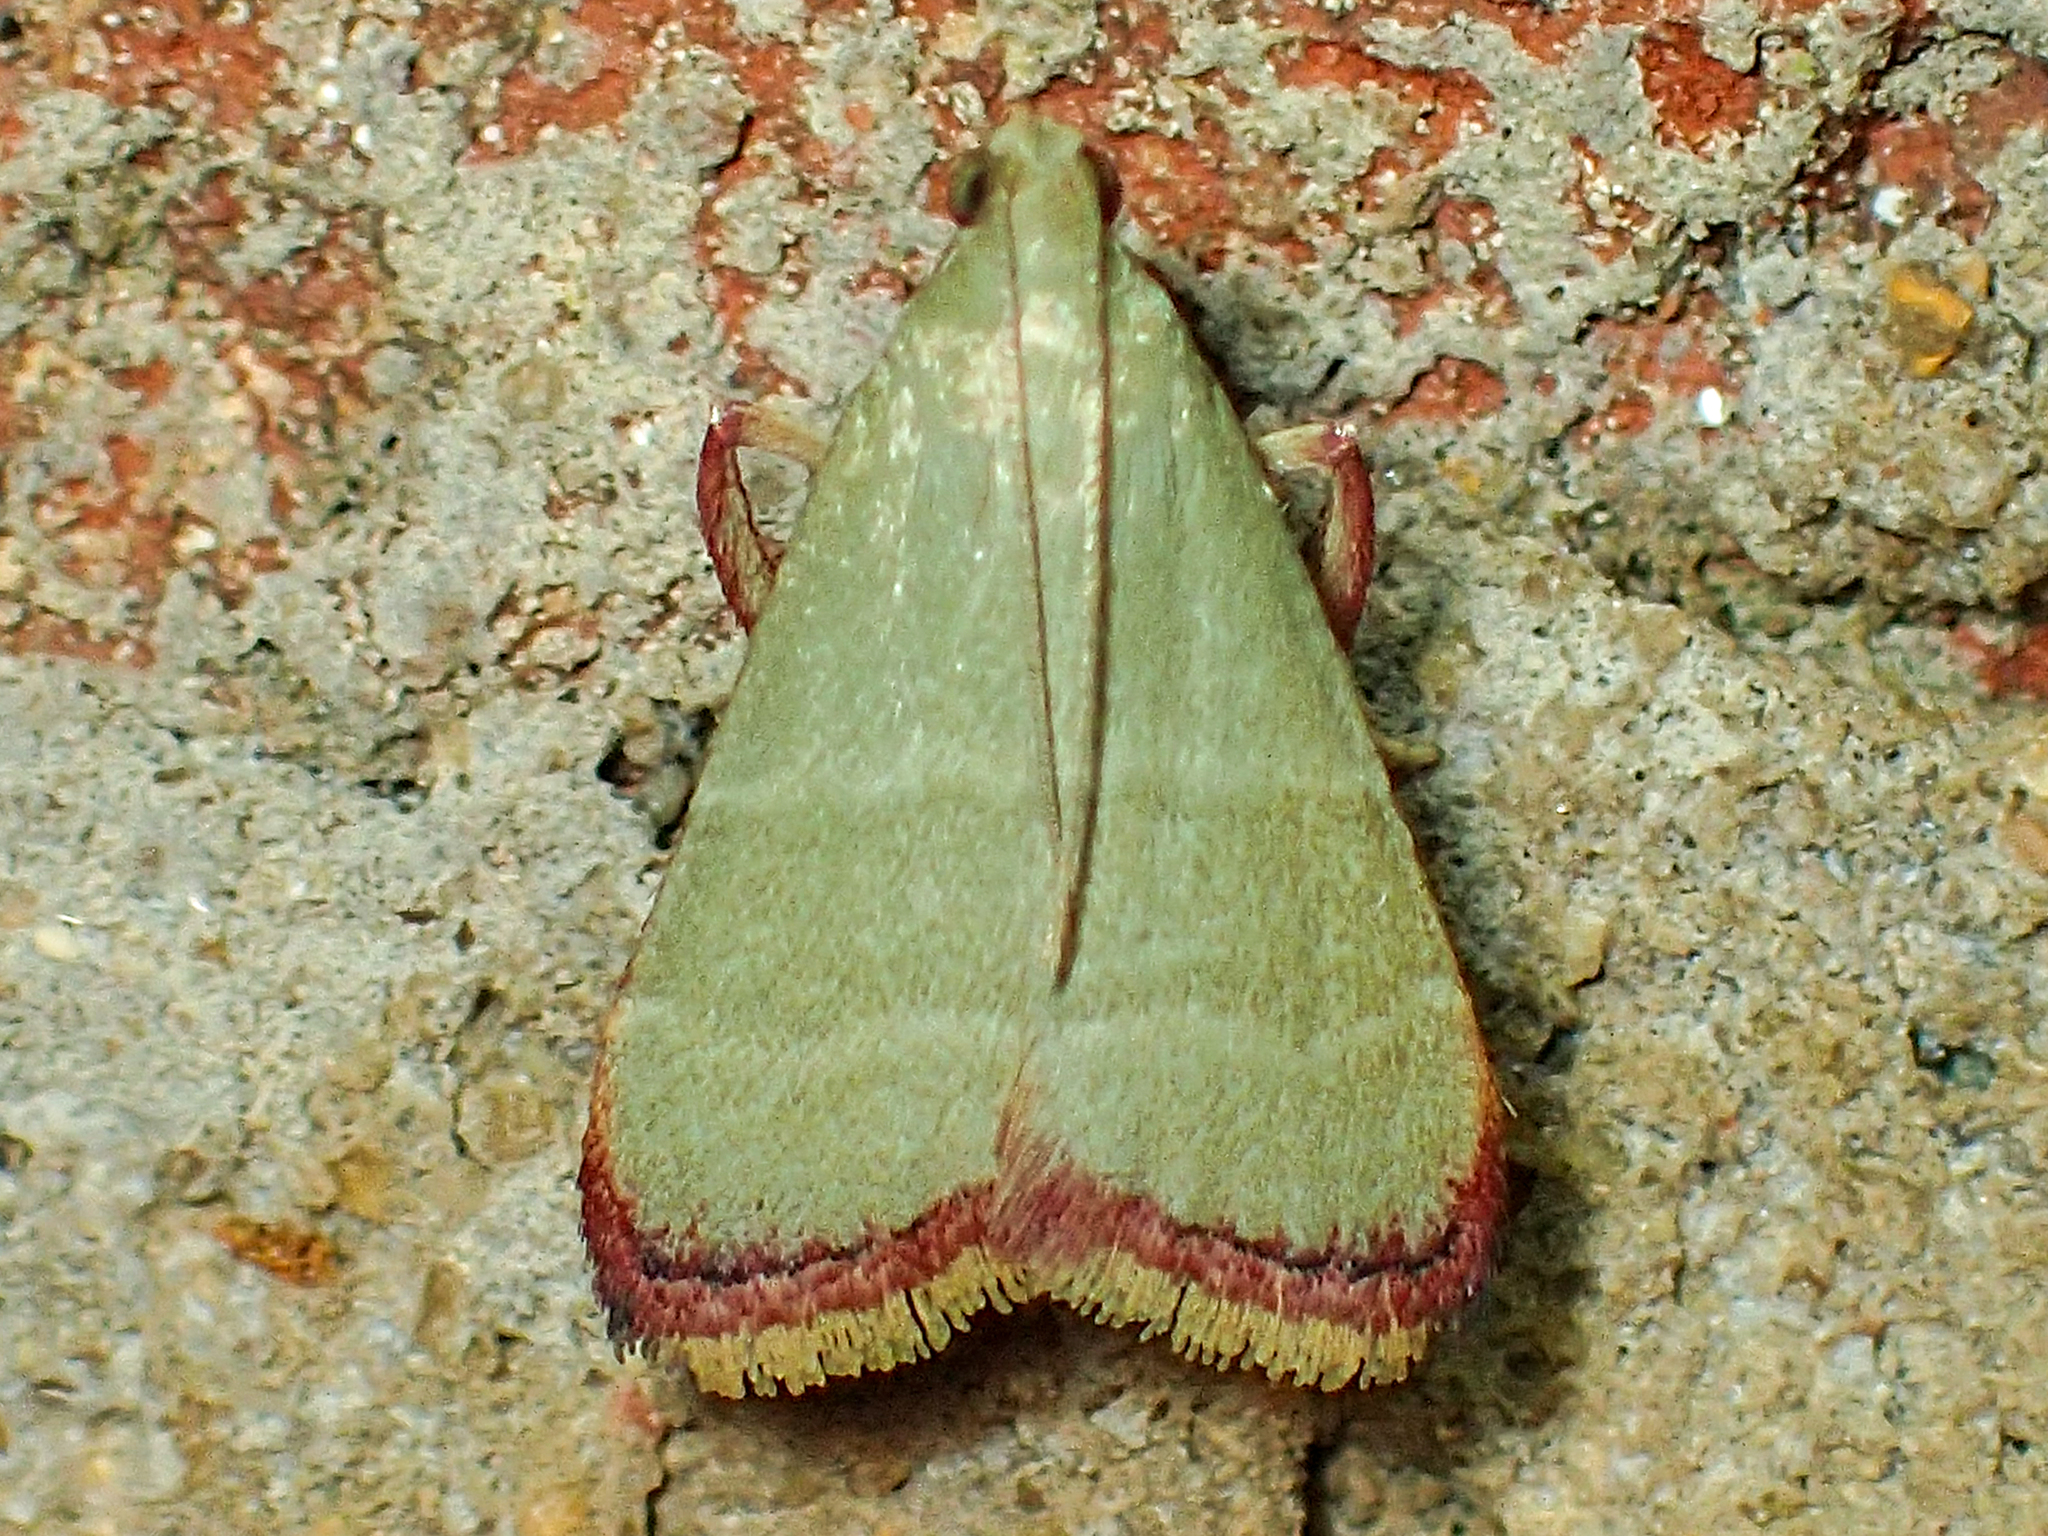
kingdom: Animalia
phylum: Arthropoda
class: Insecta
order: Lepidoptera
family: Pyralidae
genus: Arta
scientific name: Arta olivalis
